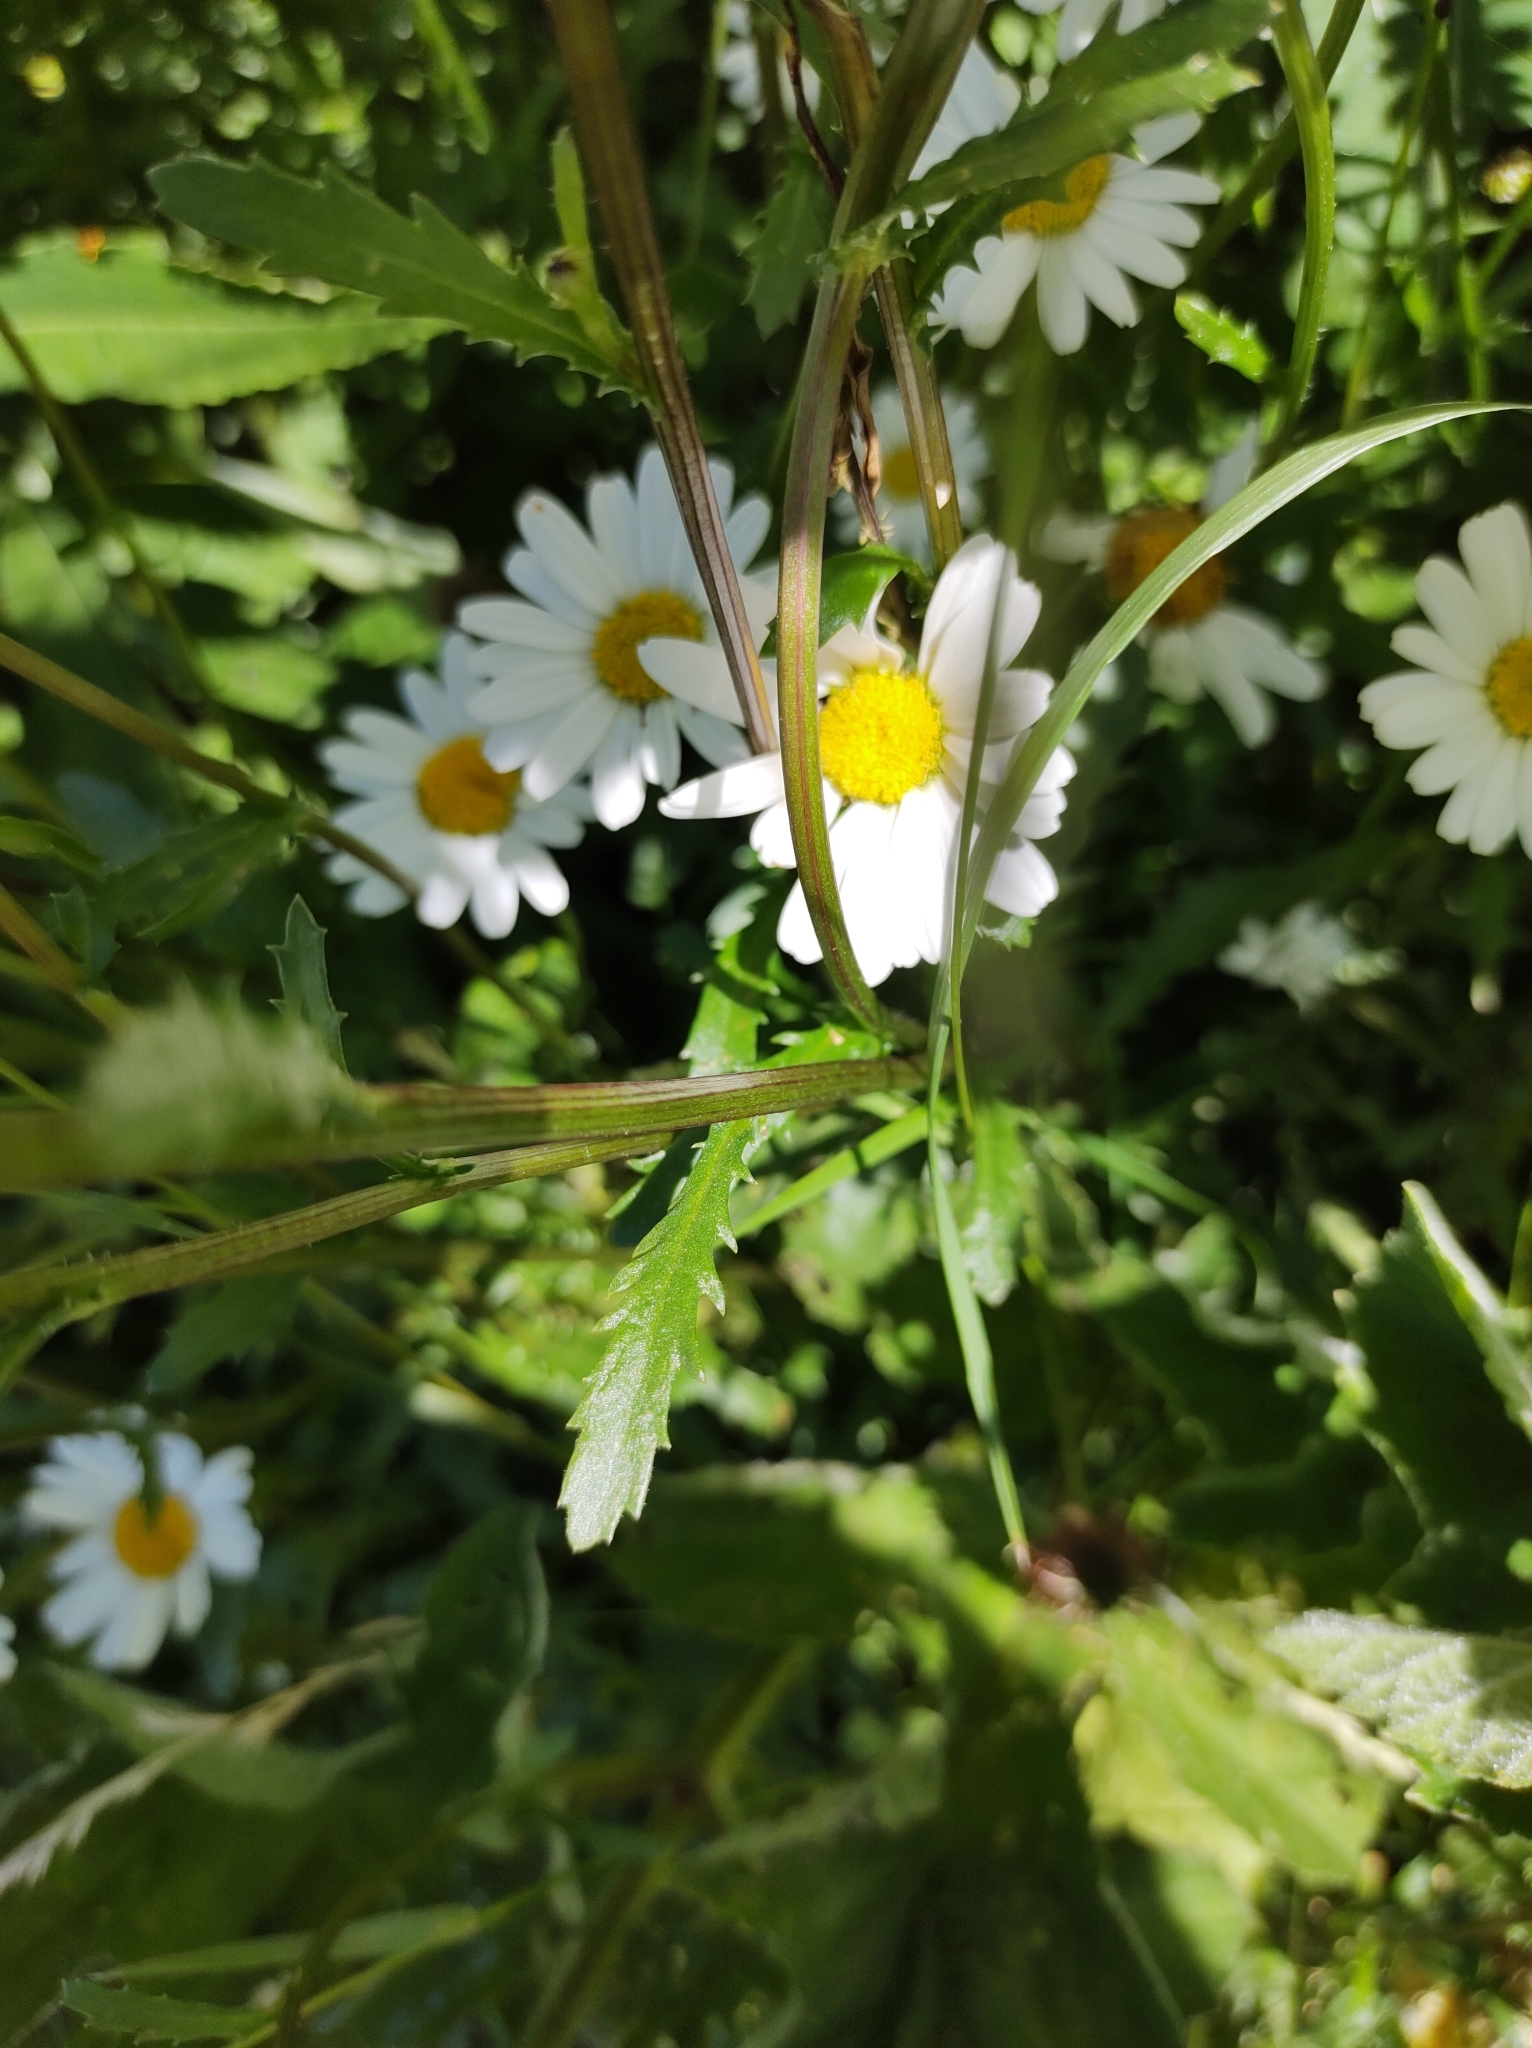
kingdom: Plantae
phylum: Tracheophyta
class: Magnoliopsida
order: Asterales
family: Asteraceae
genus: Leucanthemum
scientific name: Leucanthemum vulgare
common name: Oxeye daisy
